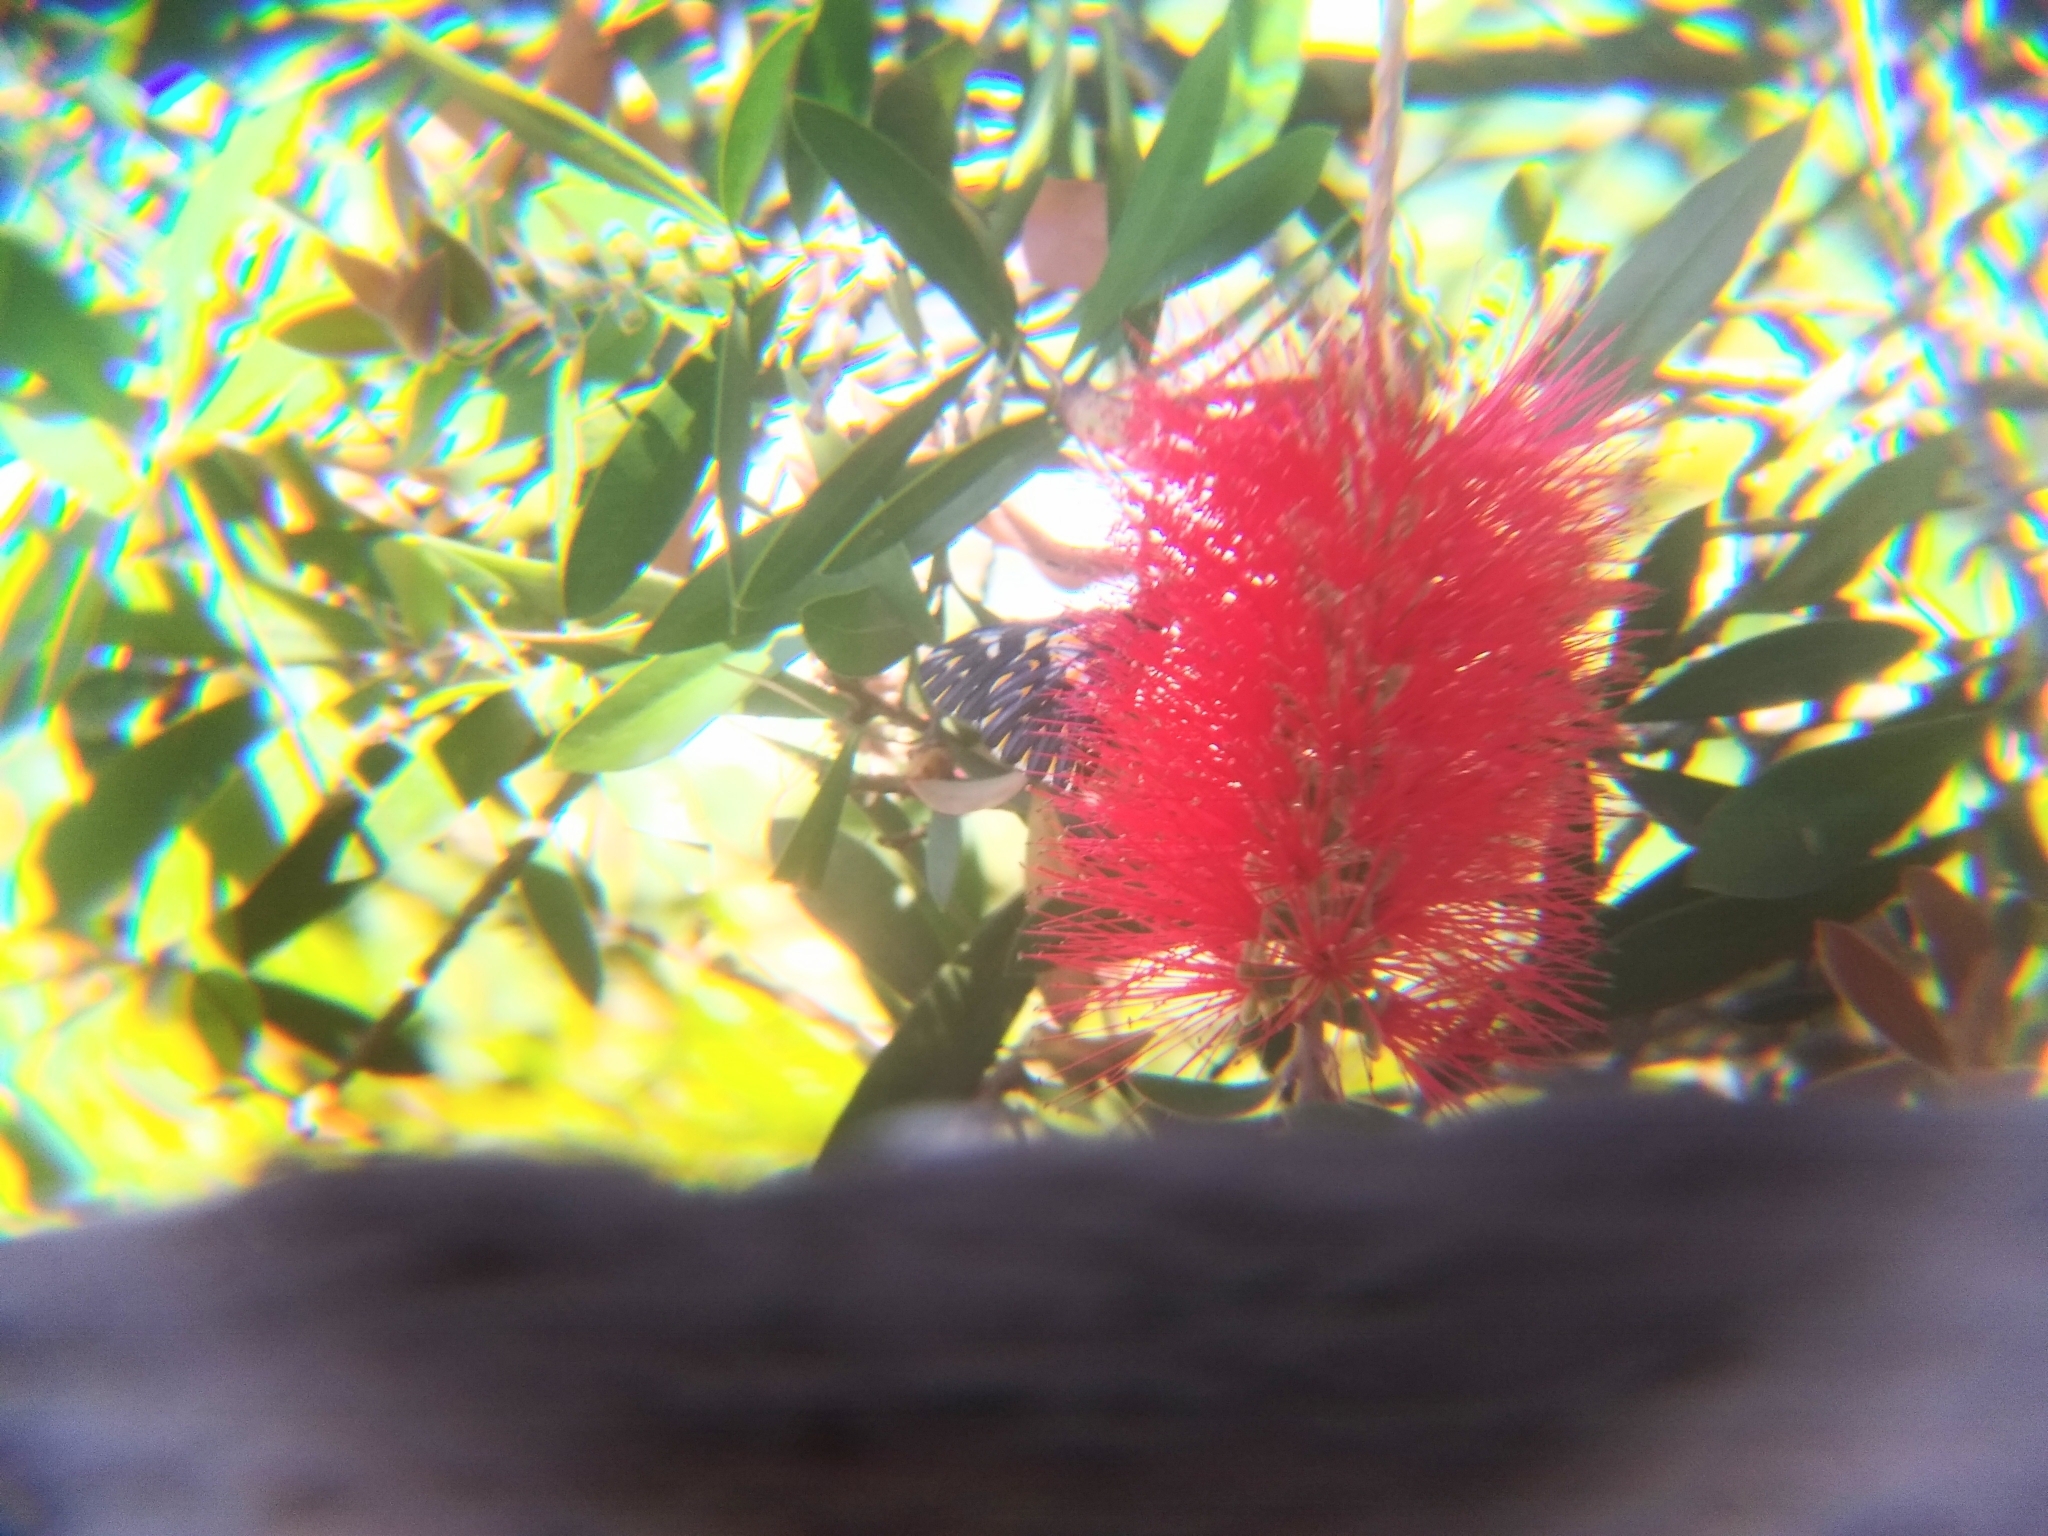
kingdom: Animalia
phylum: Arthropoda
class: Insecta
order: Lepidoptera
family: Pieridae
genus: Archonias
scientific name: Archonias teutila
